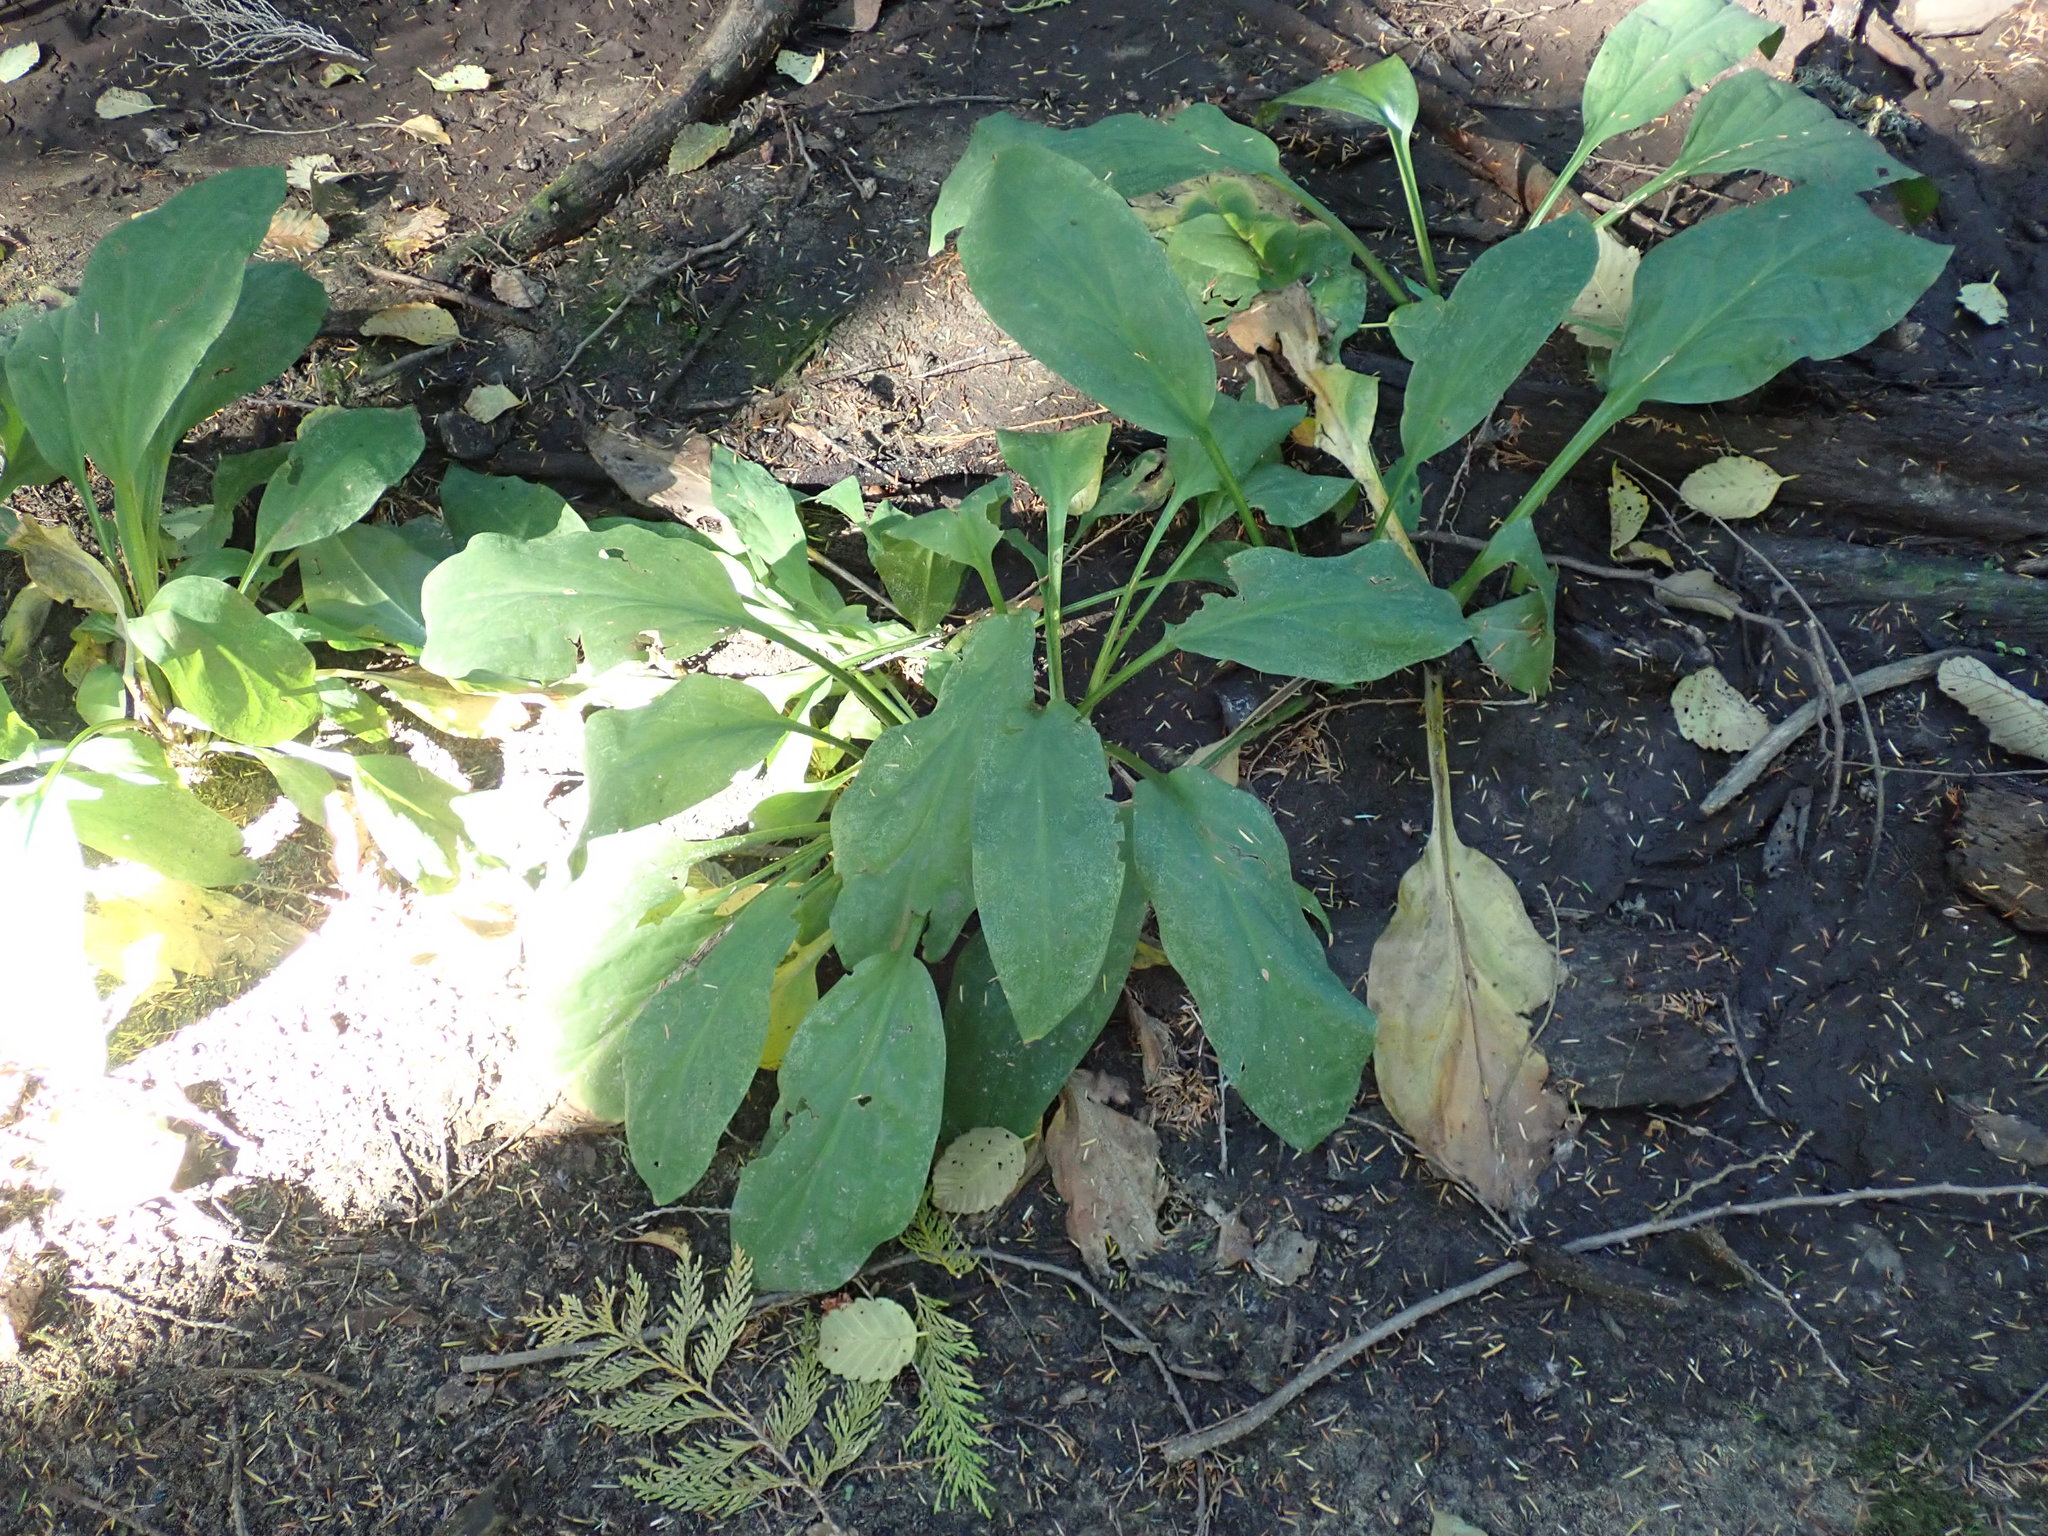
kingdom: Plantae
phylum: Tracheophyta
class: Liliopsida
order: Alismatales
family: Araceae
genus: Lysichiton
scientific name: Lysichiton americanus
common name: American skunk cabbage
